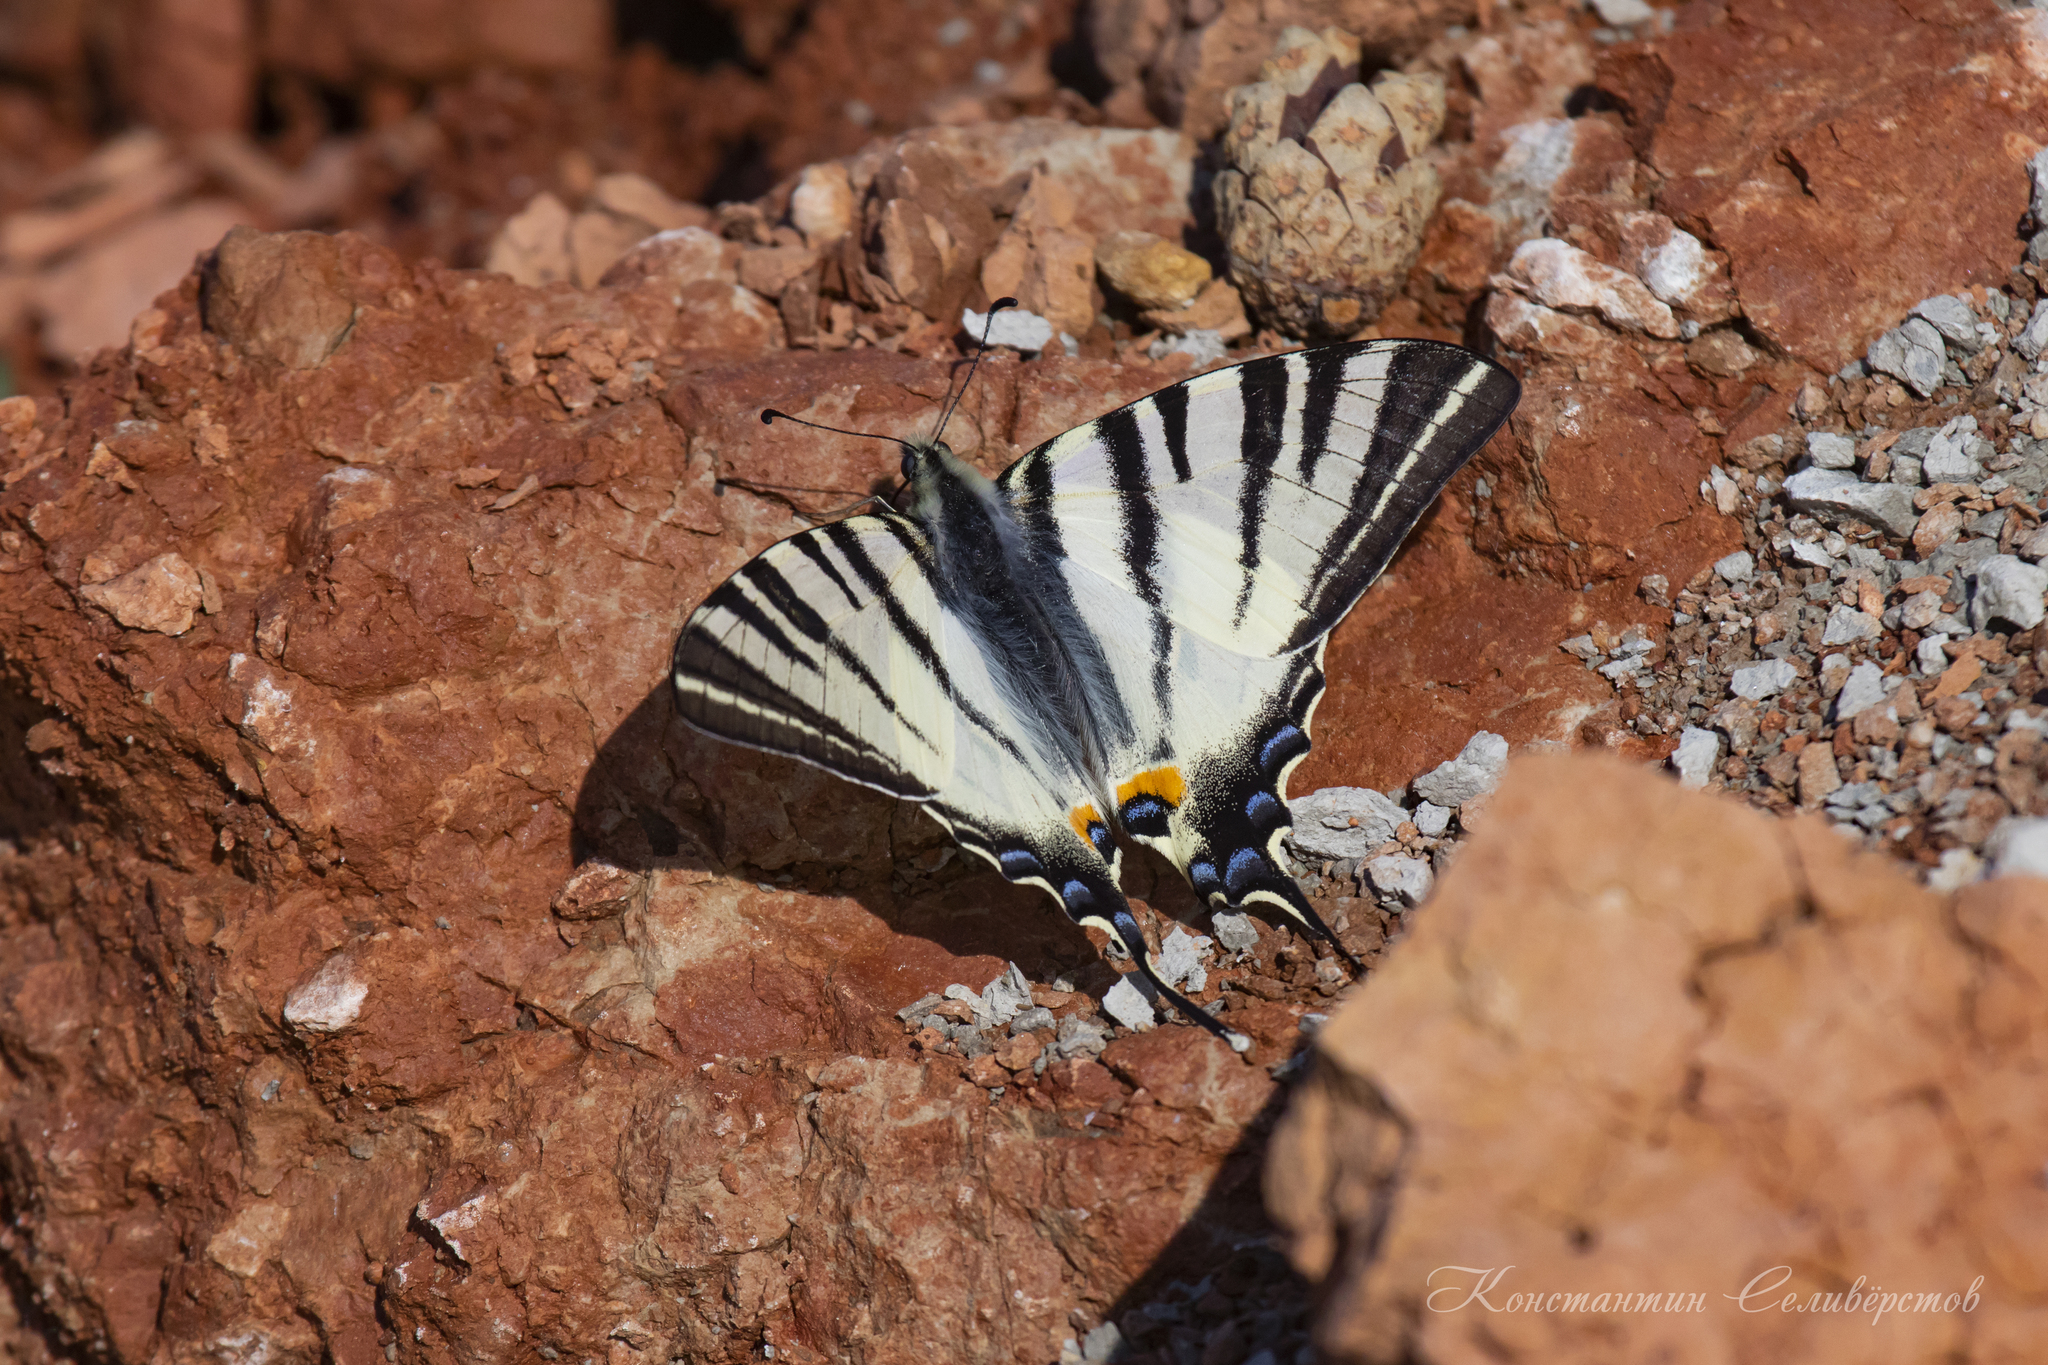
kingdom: Animalia
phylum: Arthropoda
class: Insecta
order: Lepidoptera
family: Papilionidae
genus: Iphiclides
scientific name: Iphiclides podalirius
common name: Scarce swallowtail
